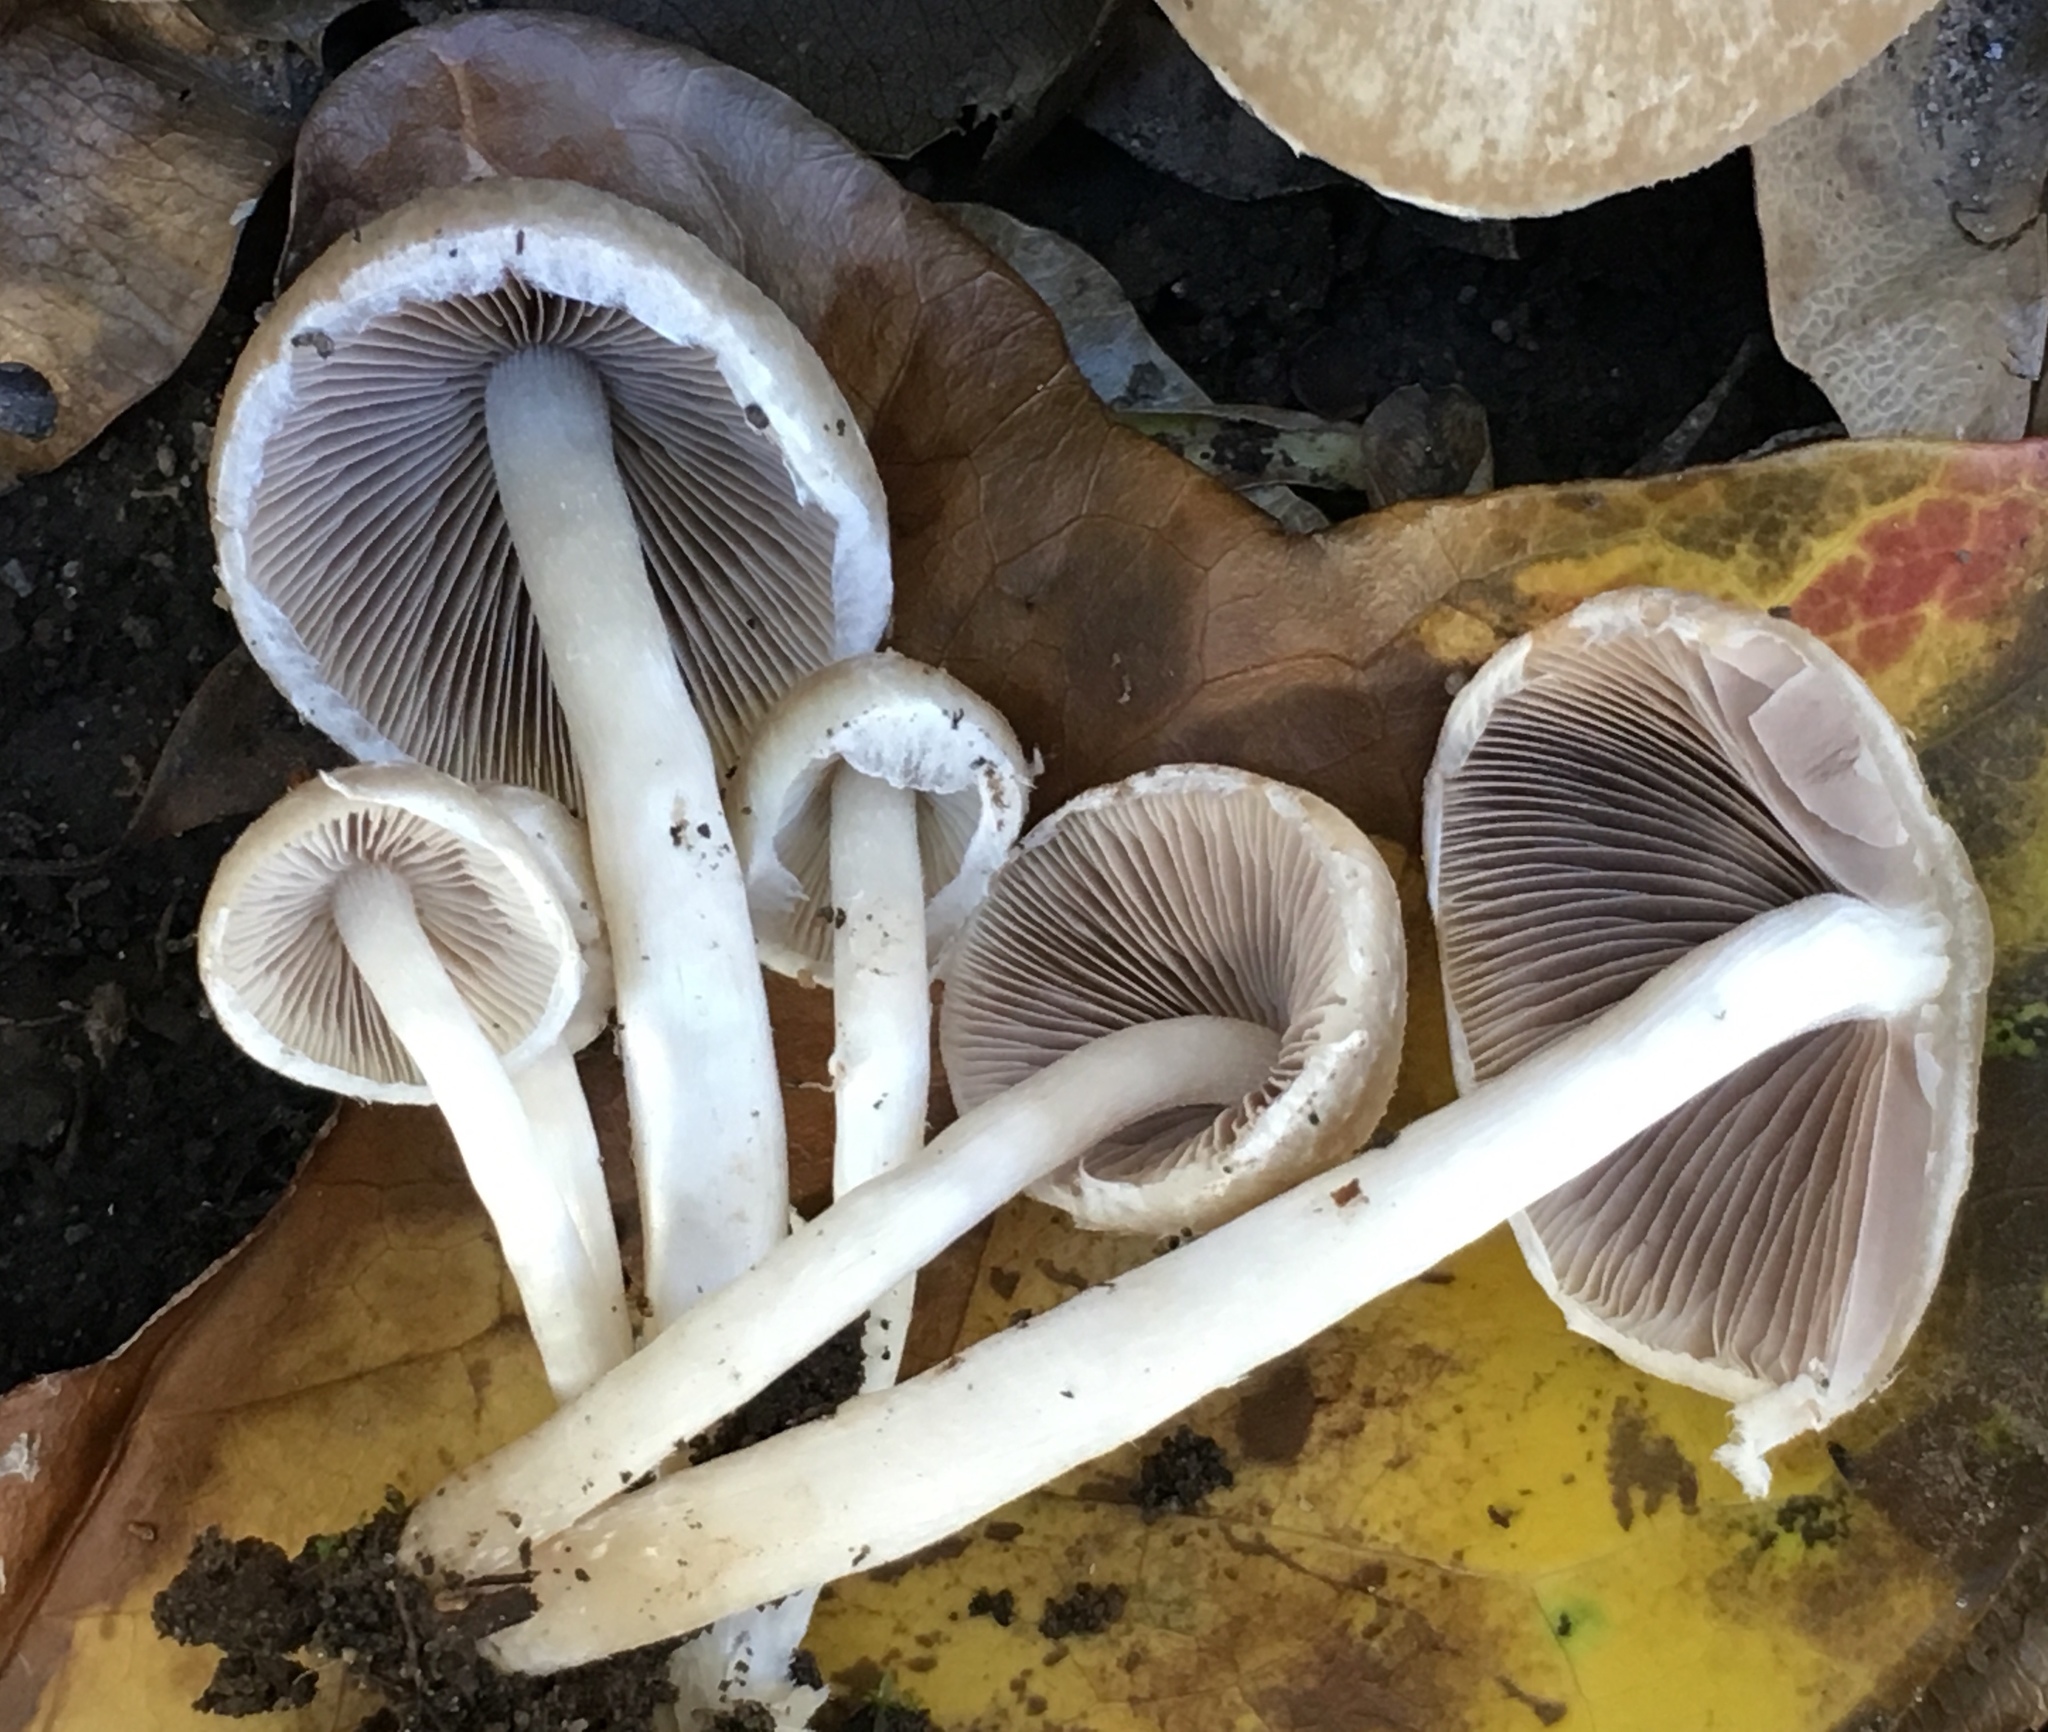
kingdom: Fungi
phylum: Basidiomycota
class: Agaricomycetes
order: Agaricales
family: Psathyrellaceae
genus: Candolleomyces
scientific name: Candolleomyces candolleanus
